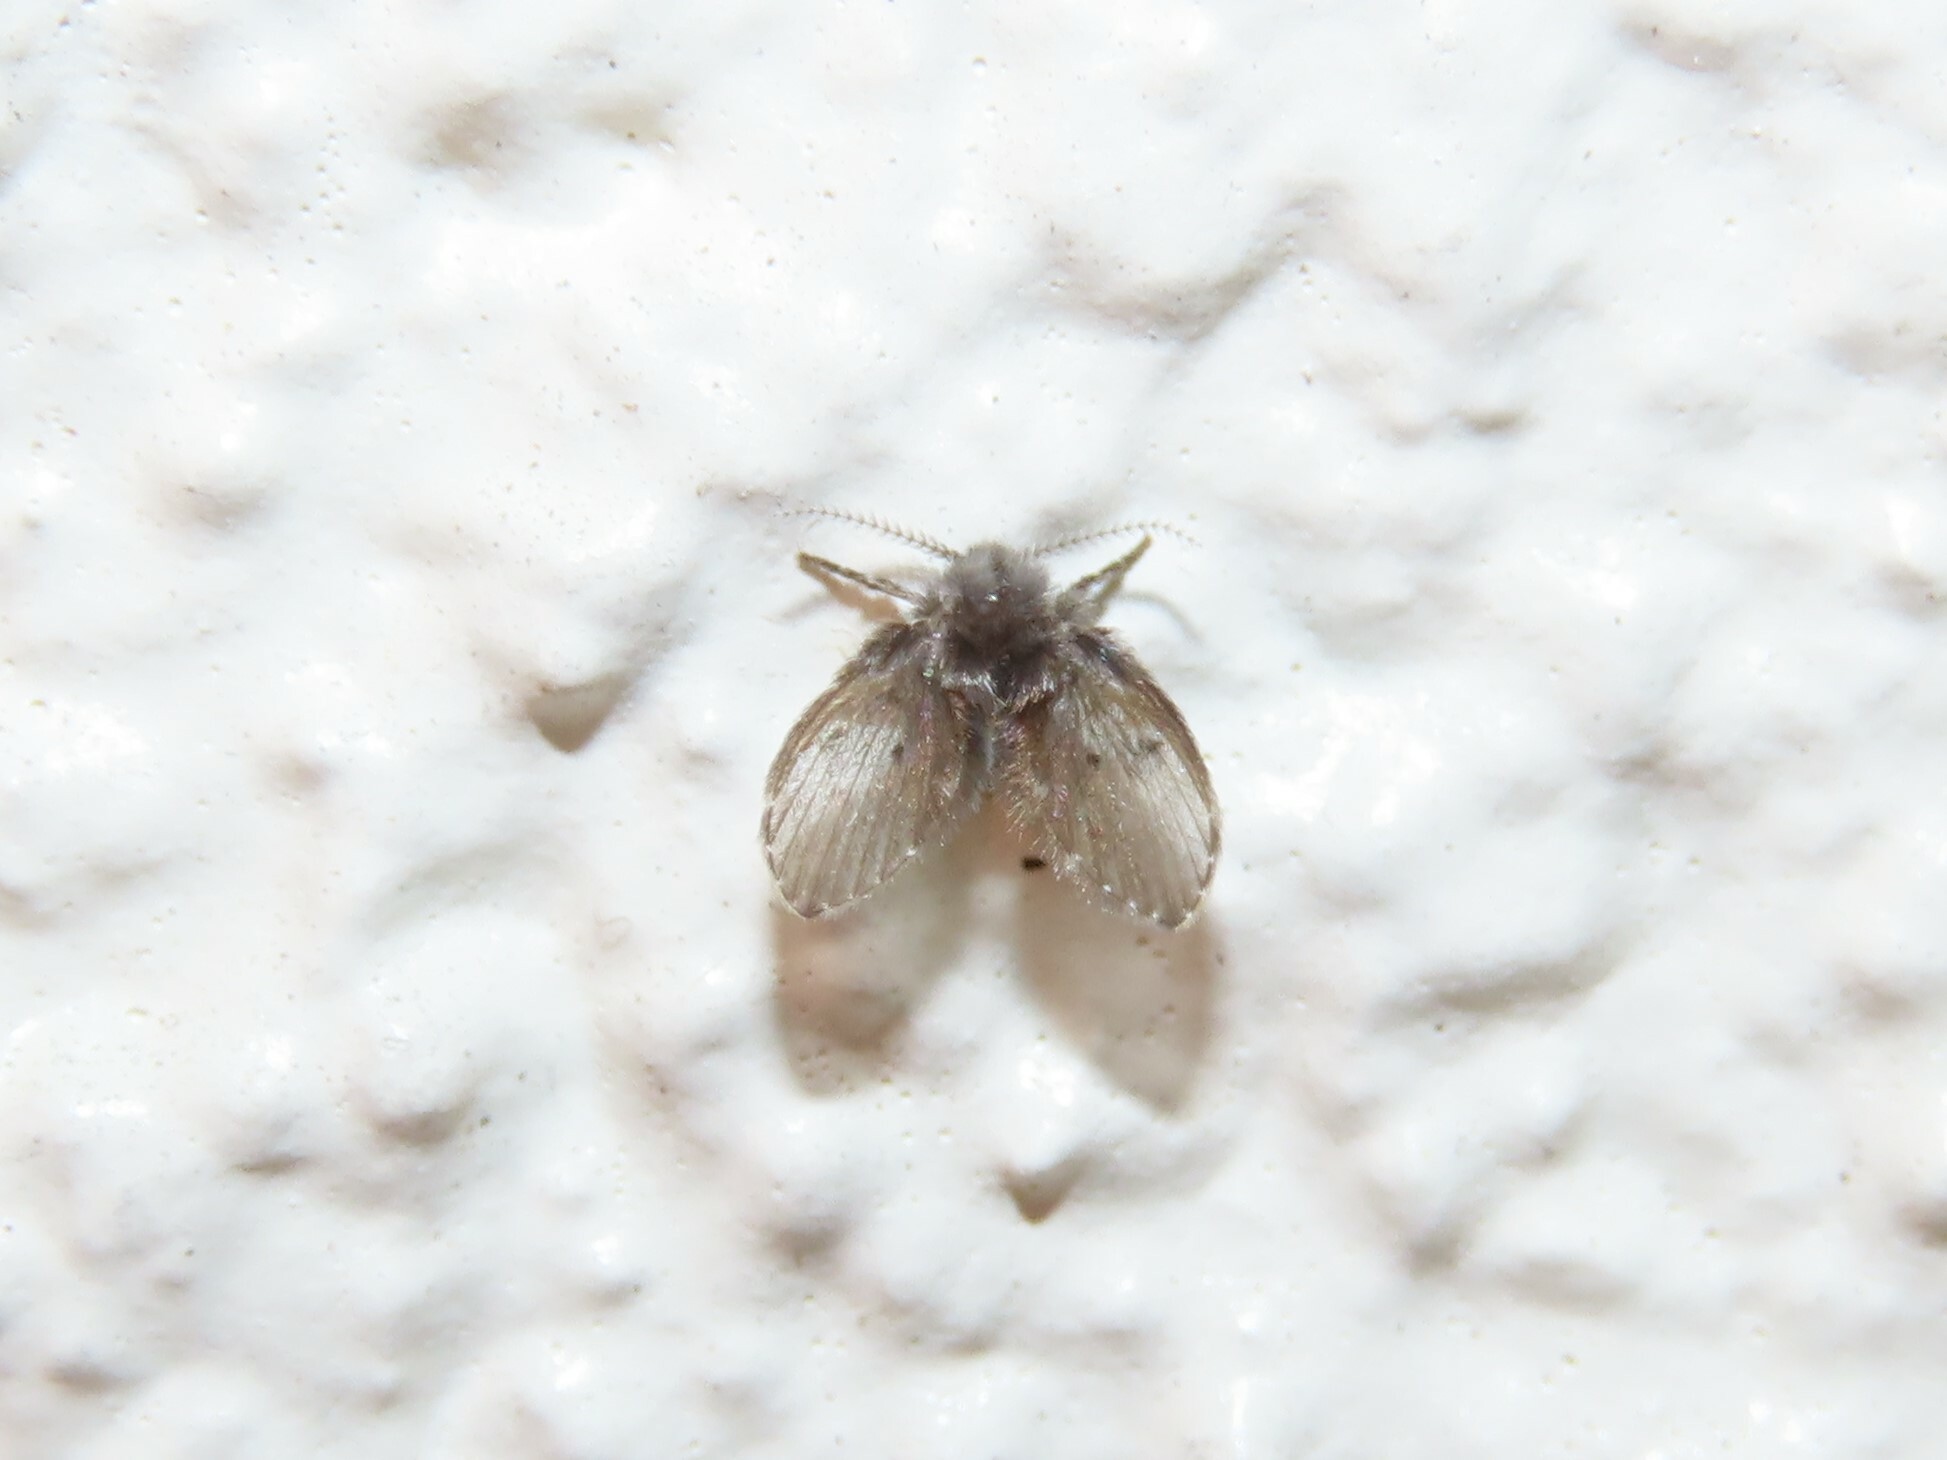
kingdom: Animalia
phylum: Arthropoda
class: Insecta
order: Diptera
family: Psychodidae
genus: Clogmia
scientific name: Clogmia albipunctatus
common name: White-spotted moth fly
